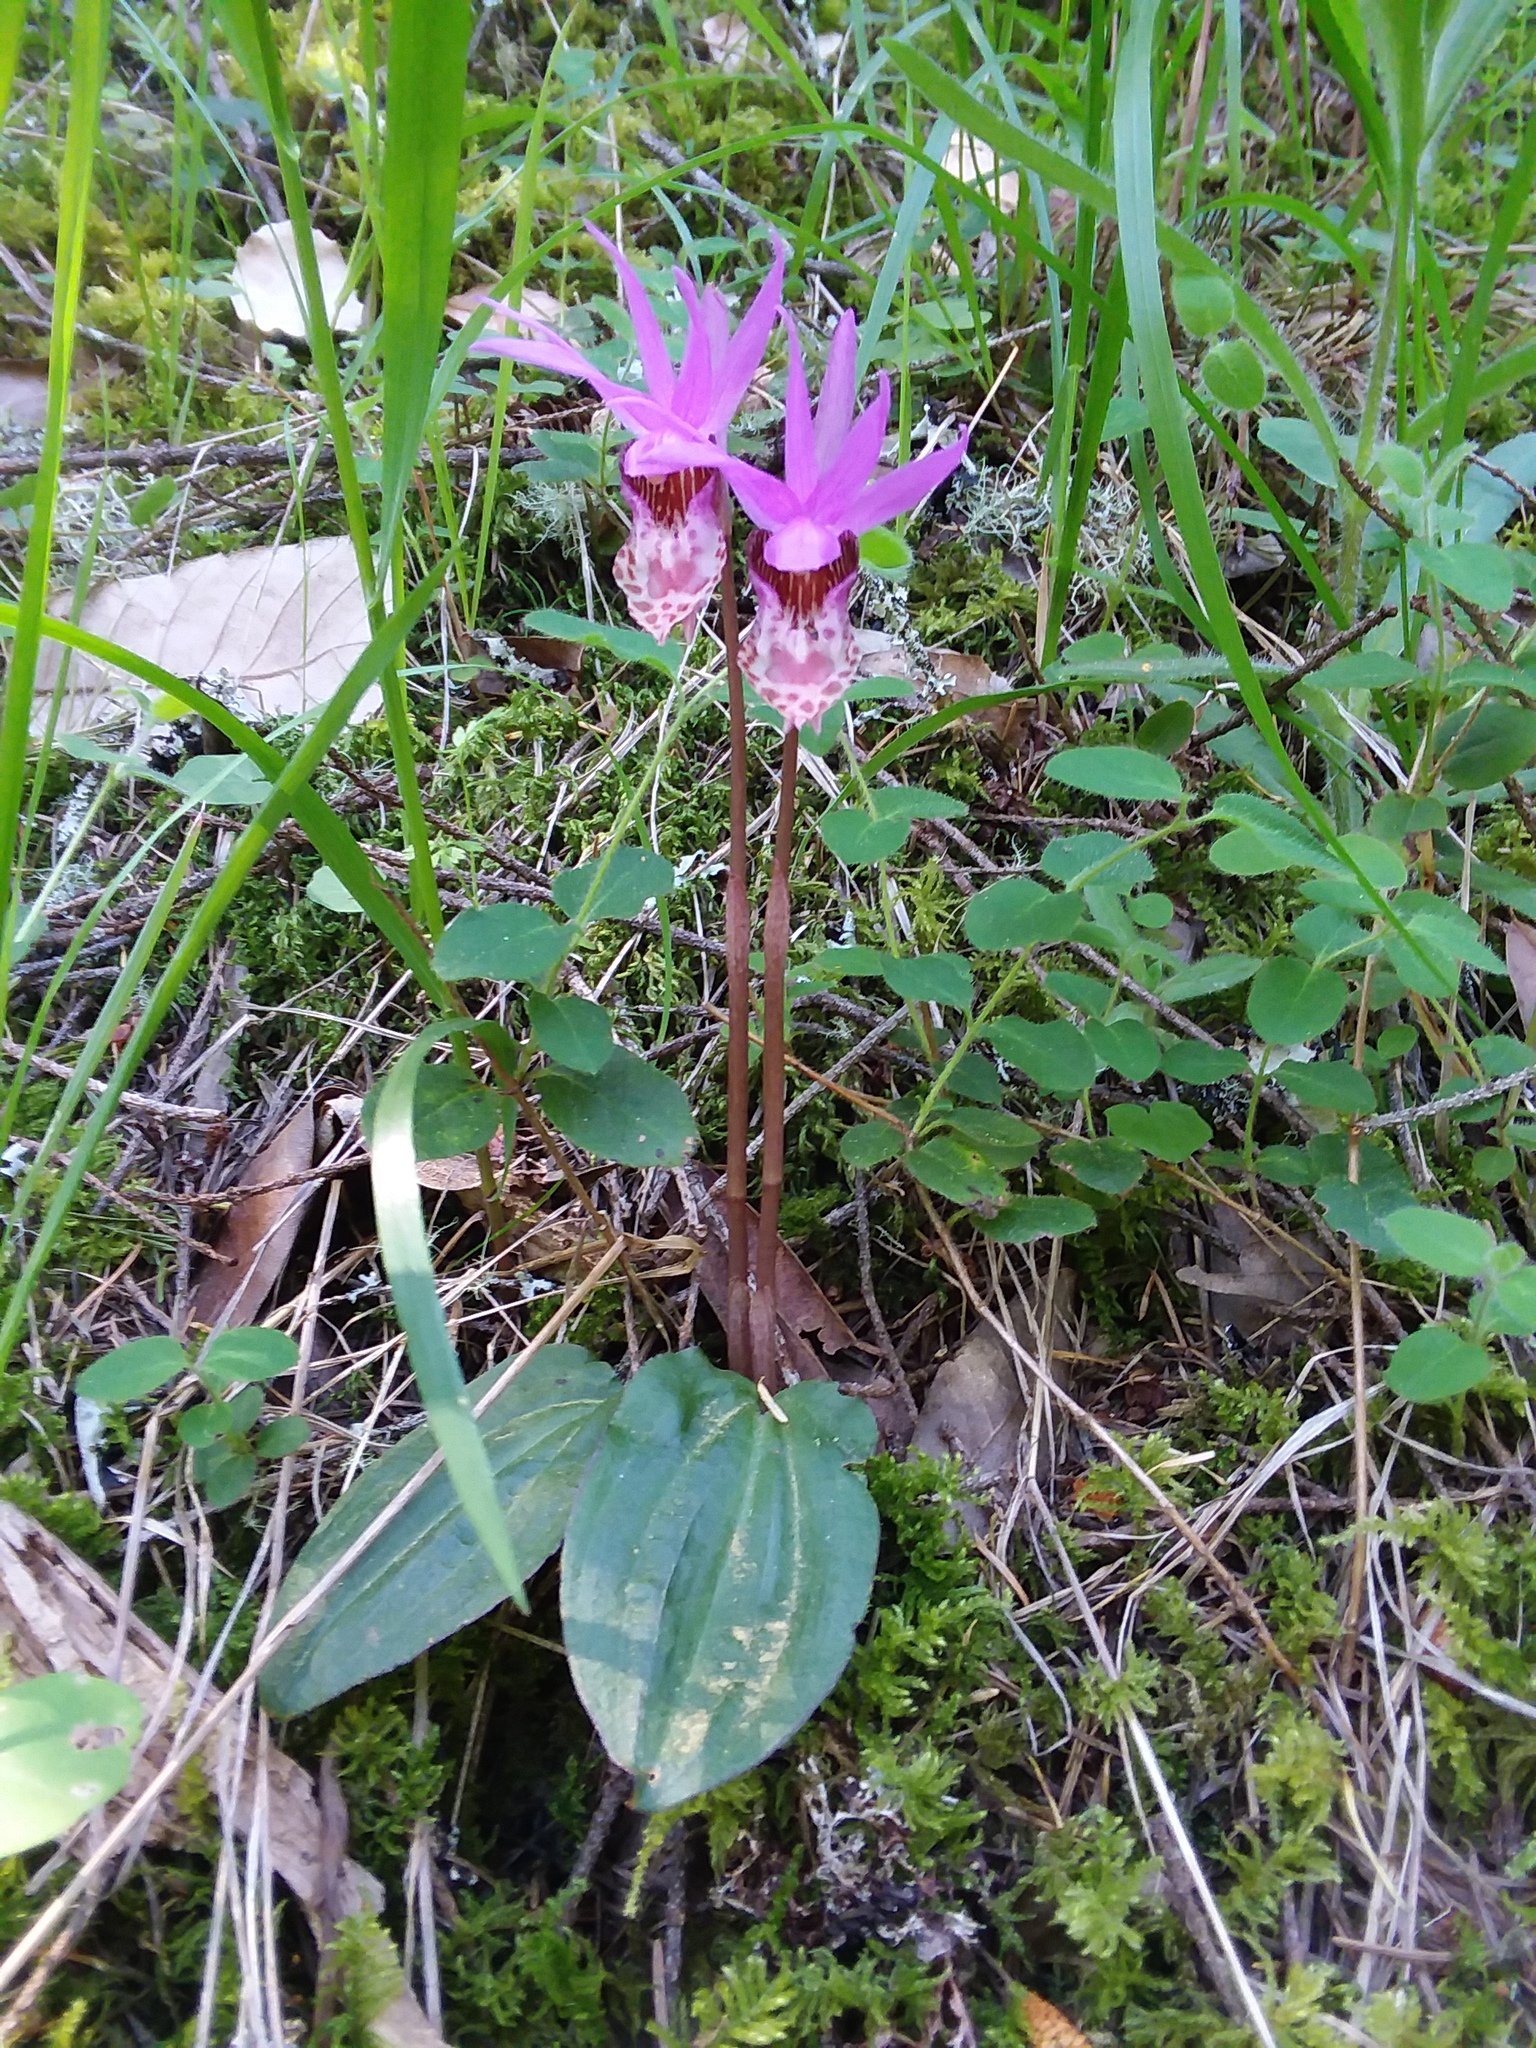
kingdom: Plantae
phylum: Tracheophyta
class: Liliopsida
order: Asparagales
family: Orchidaceae
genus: Calypso
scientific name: Calypso bulbosa
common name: Calypso
